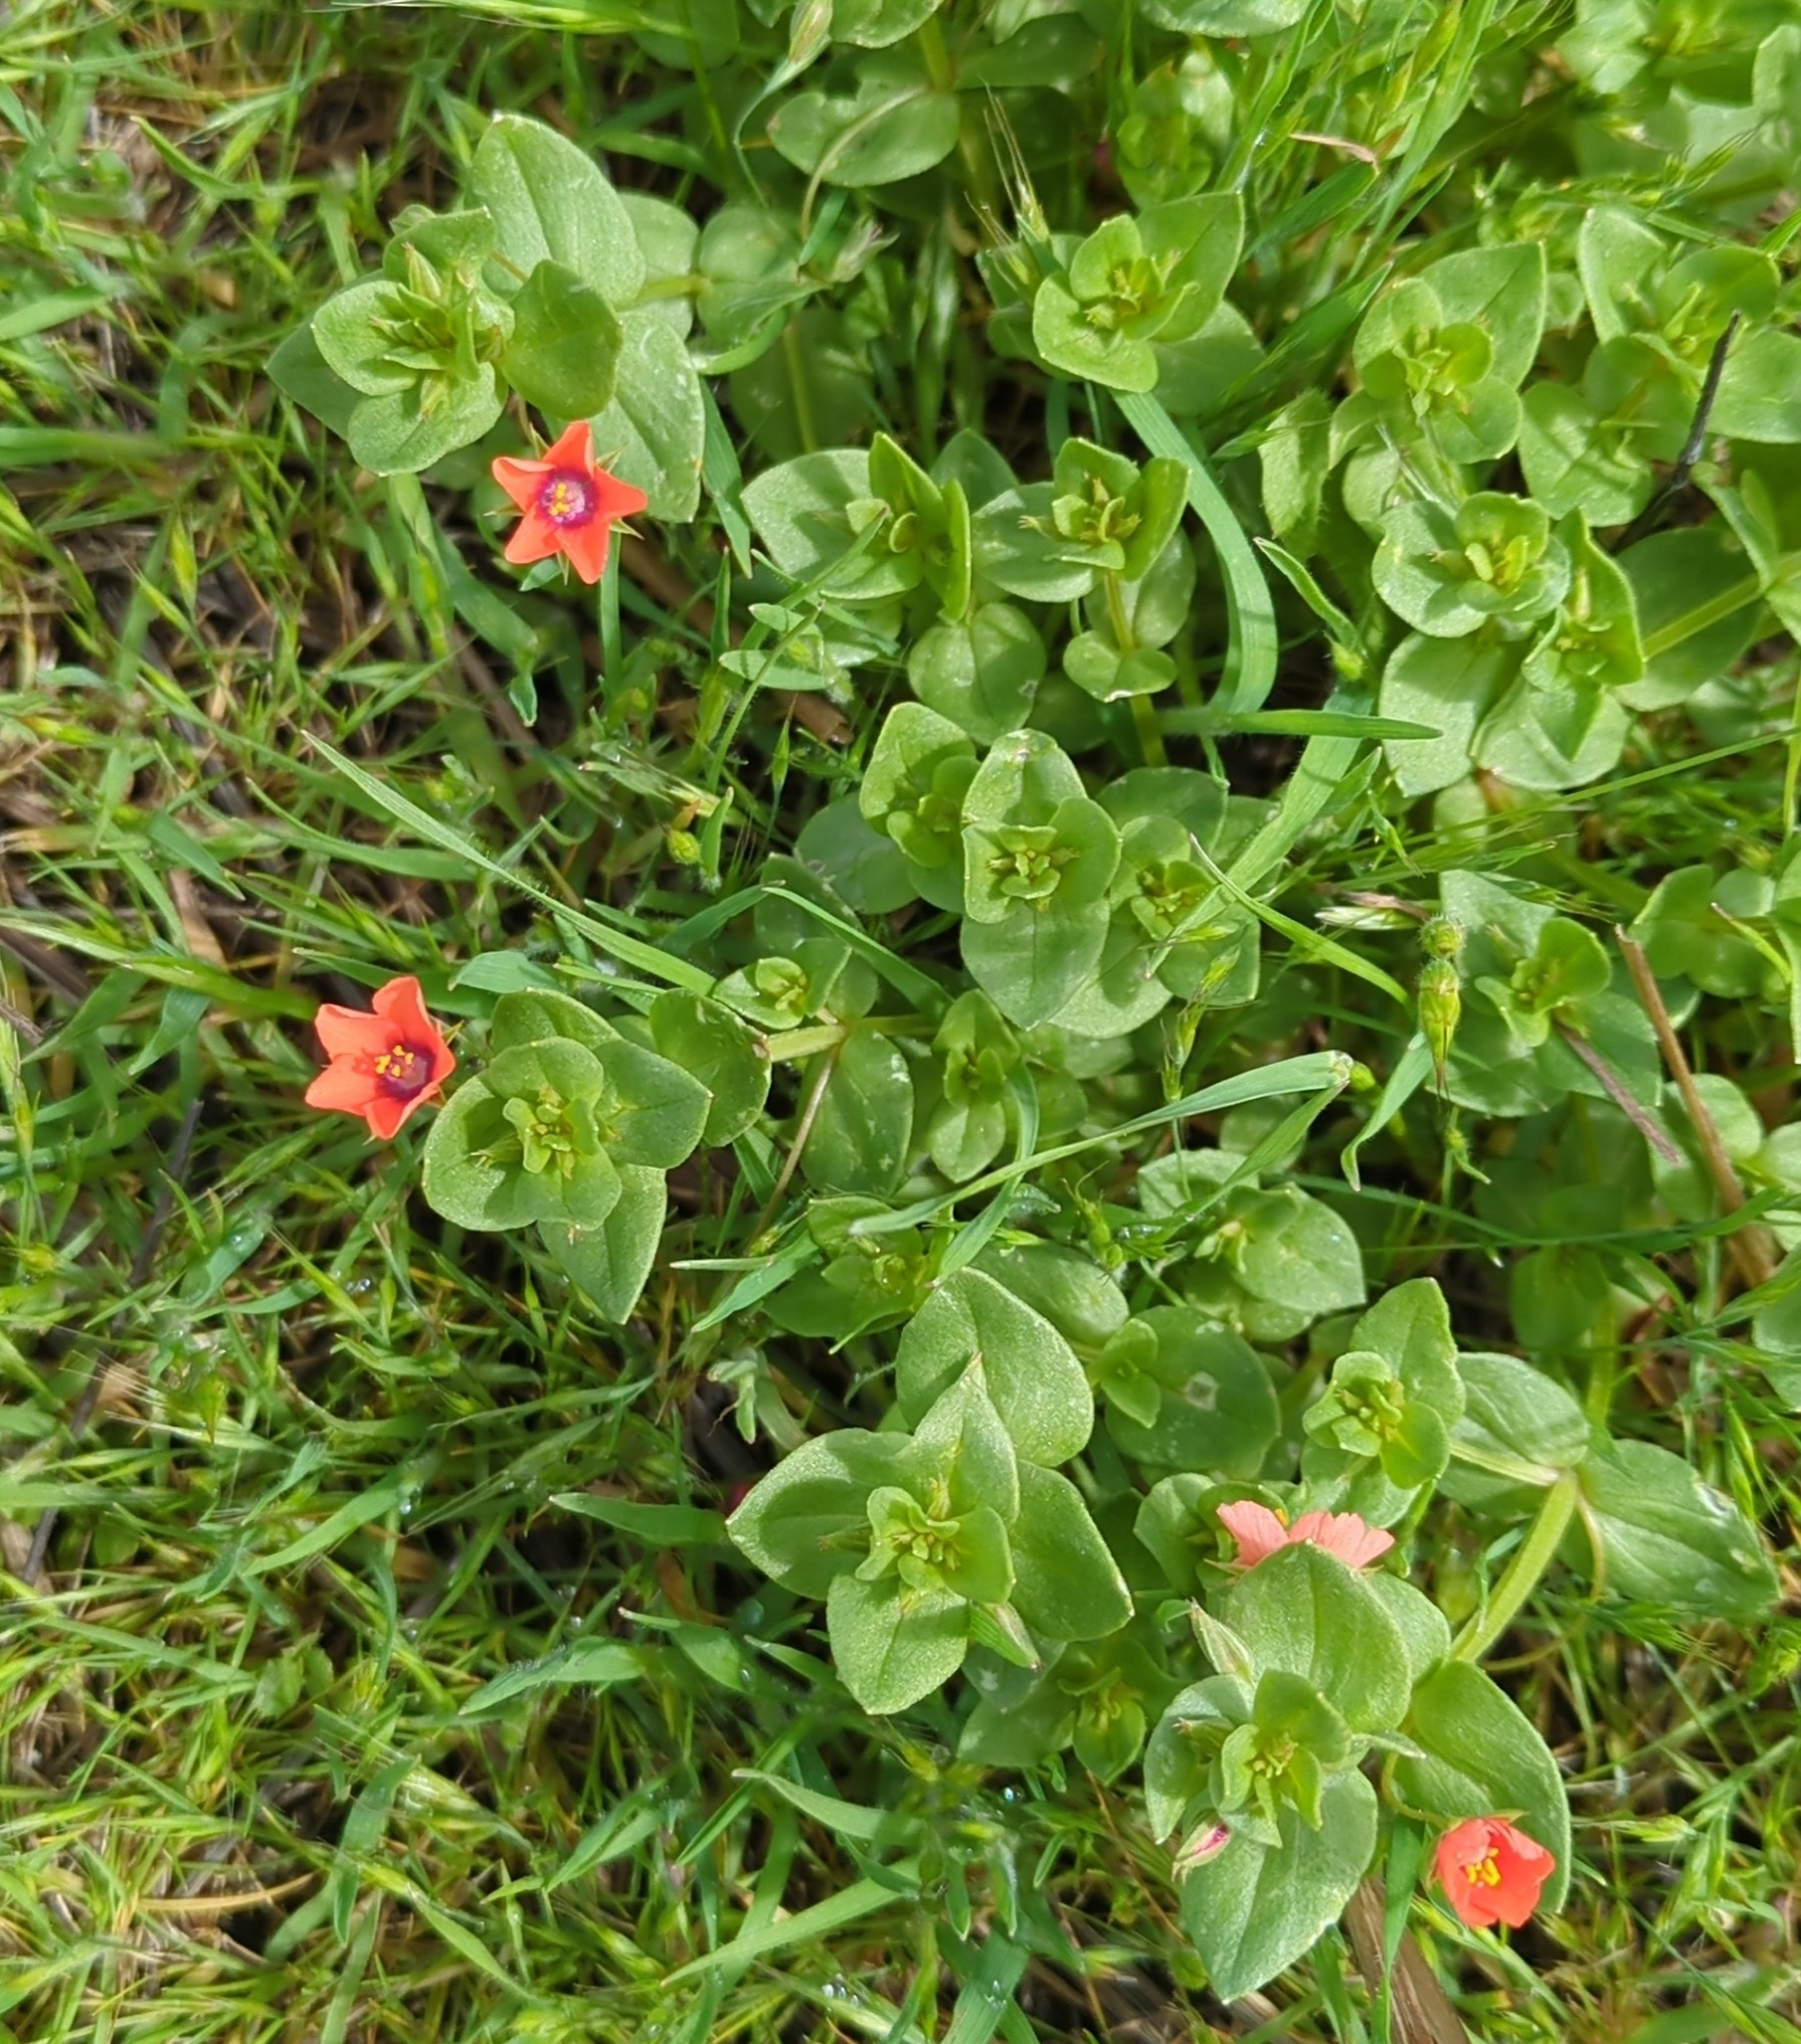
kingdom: Plantae
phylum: Tracheophyta
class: Magnoliopsida
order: Ericales
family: Primulaceae
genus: Lysimachia
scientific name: Lysimachia arvensis
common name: Scarlet pimpernel
